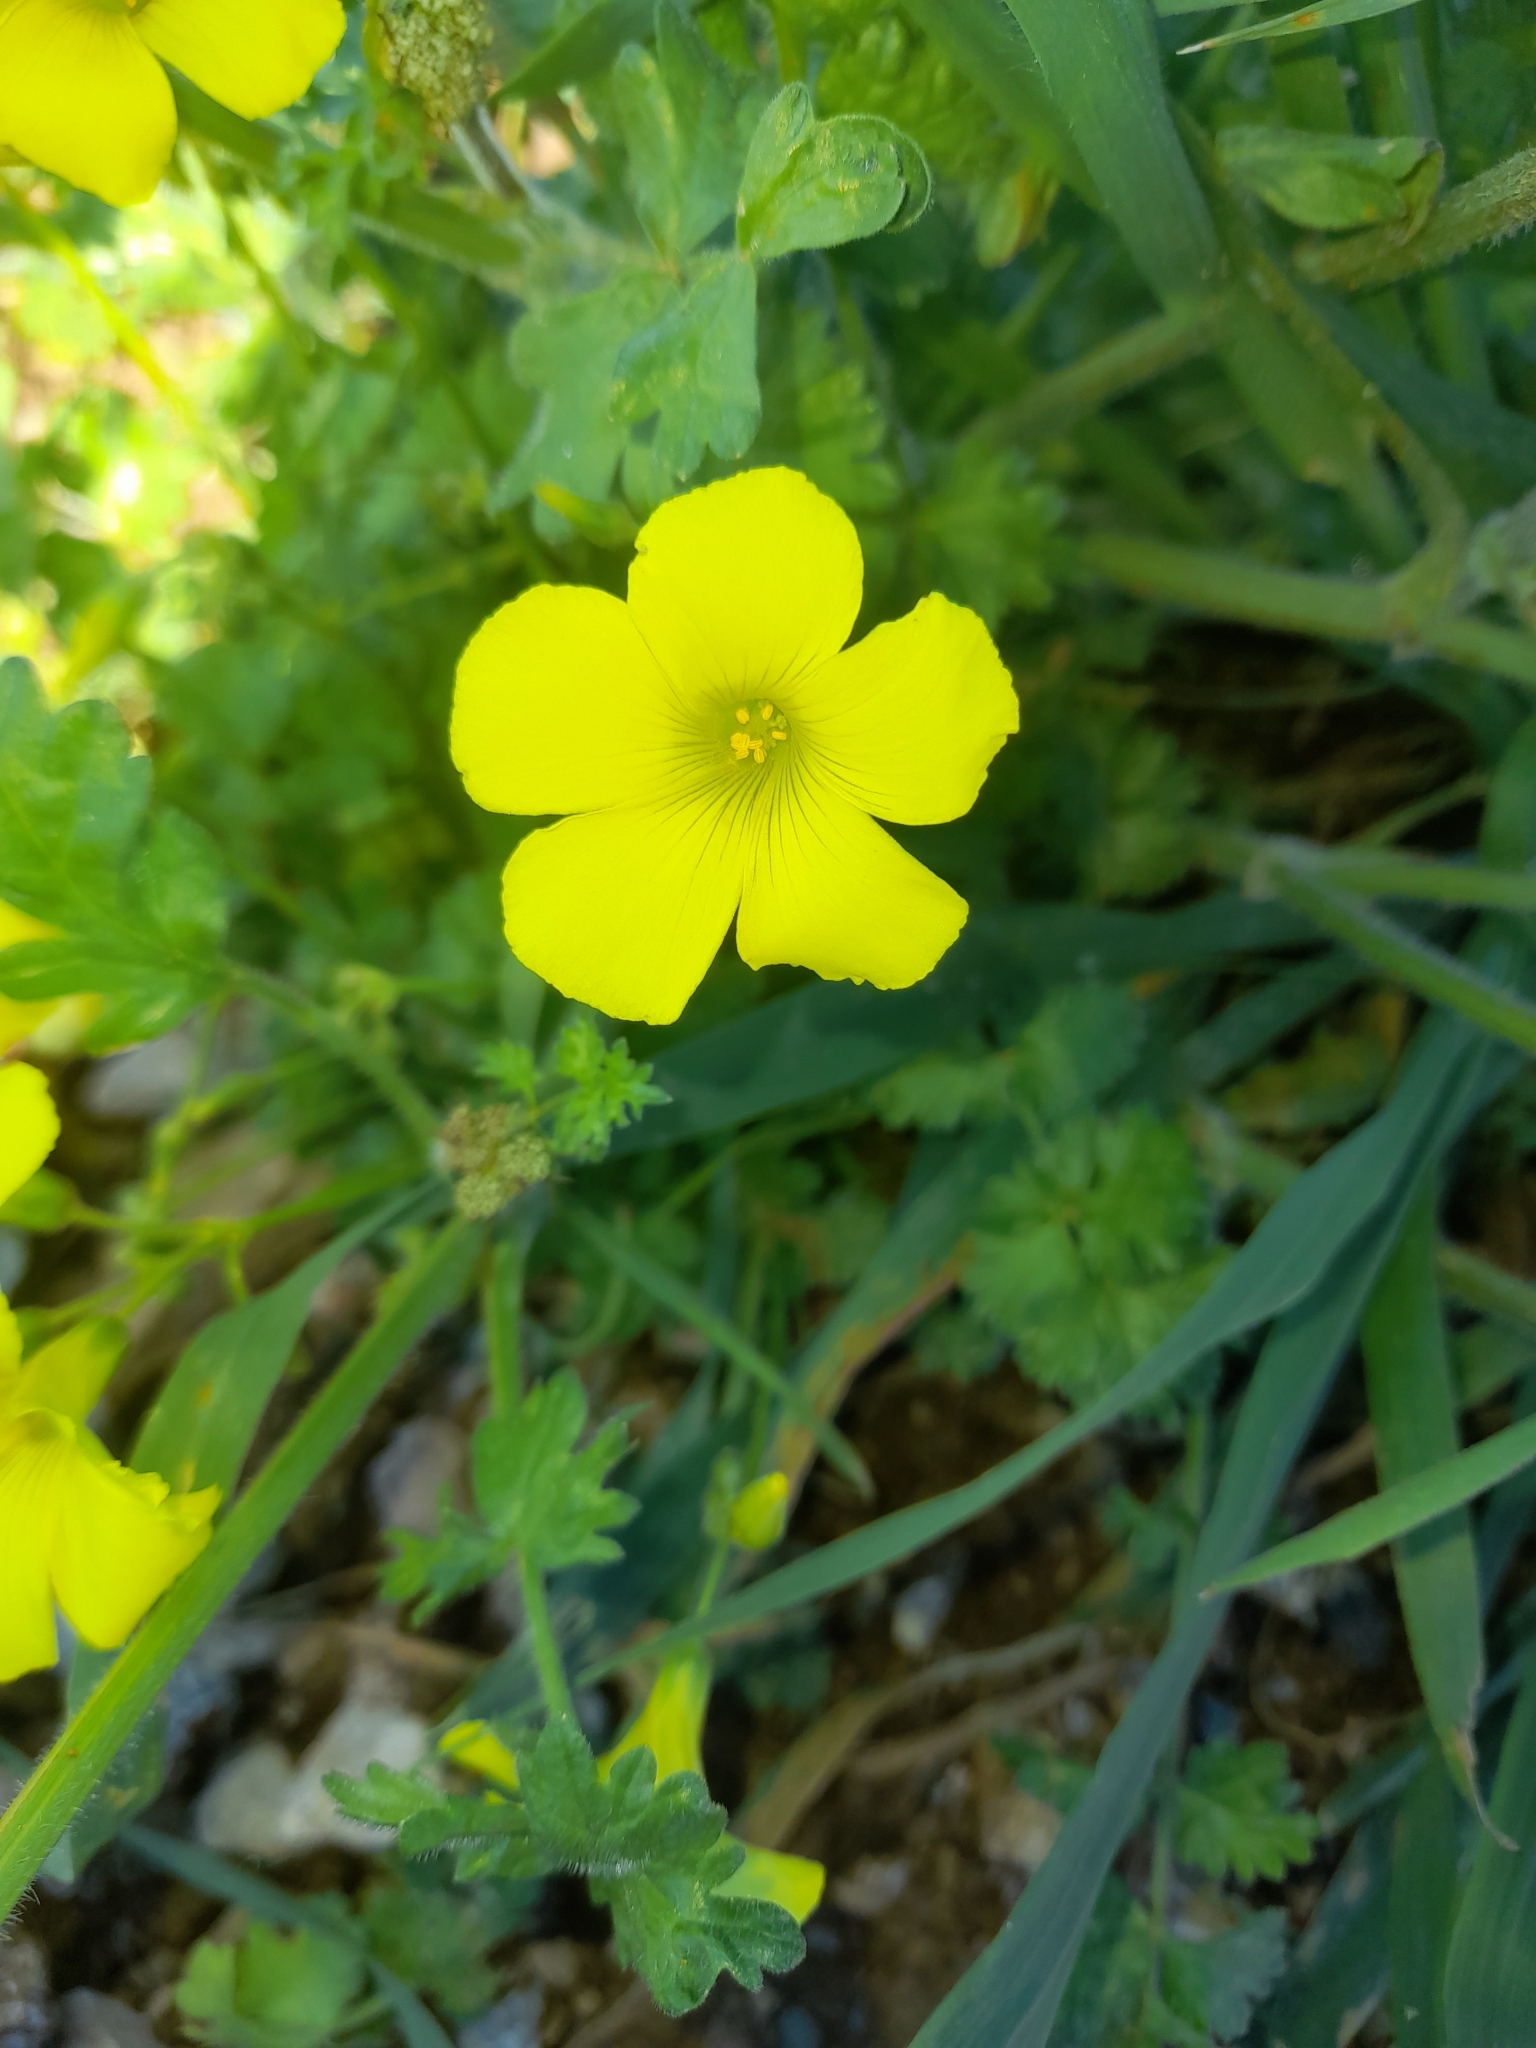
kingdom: Plantae
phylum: Tracheophyta
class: Magnoliopsida
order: Oxalidales
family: Oxalidaceae
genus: Oxalis
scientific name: Oxalis pes-caprae
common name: Bermuda-buttercup
